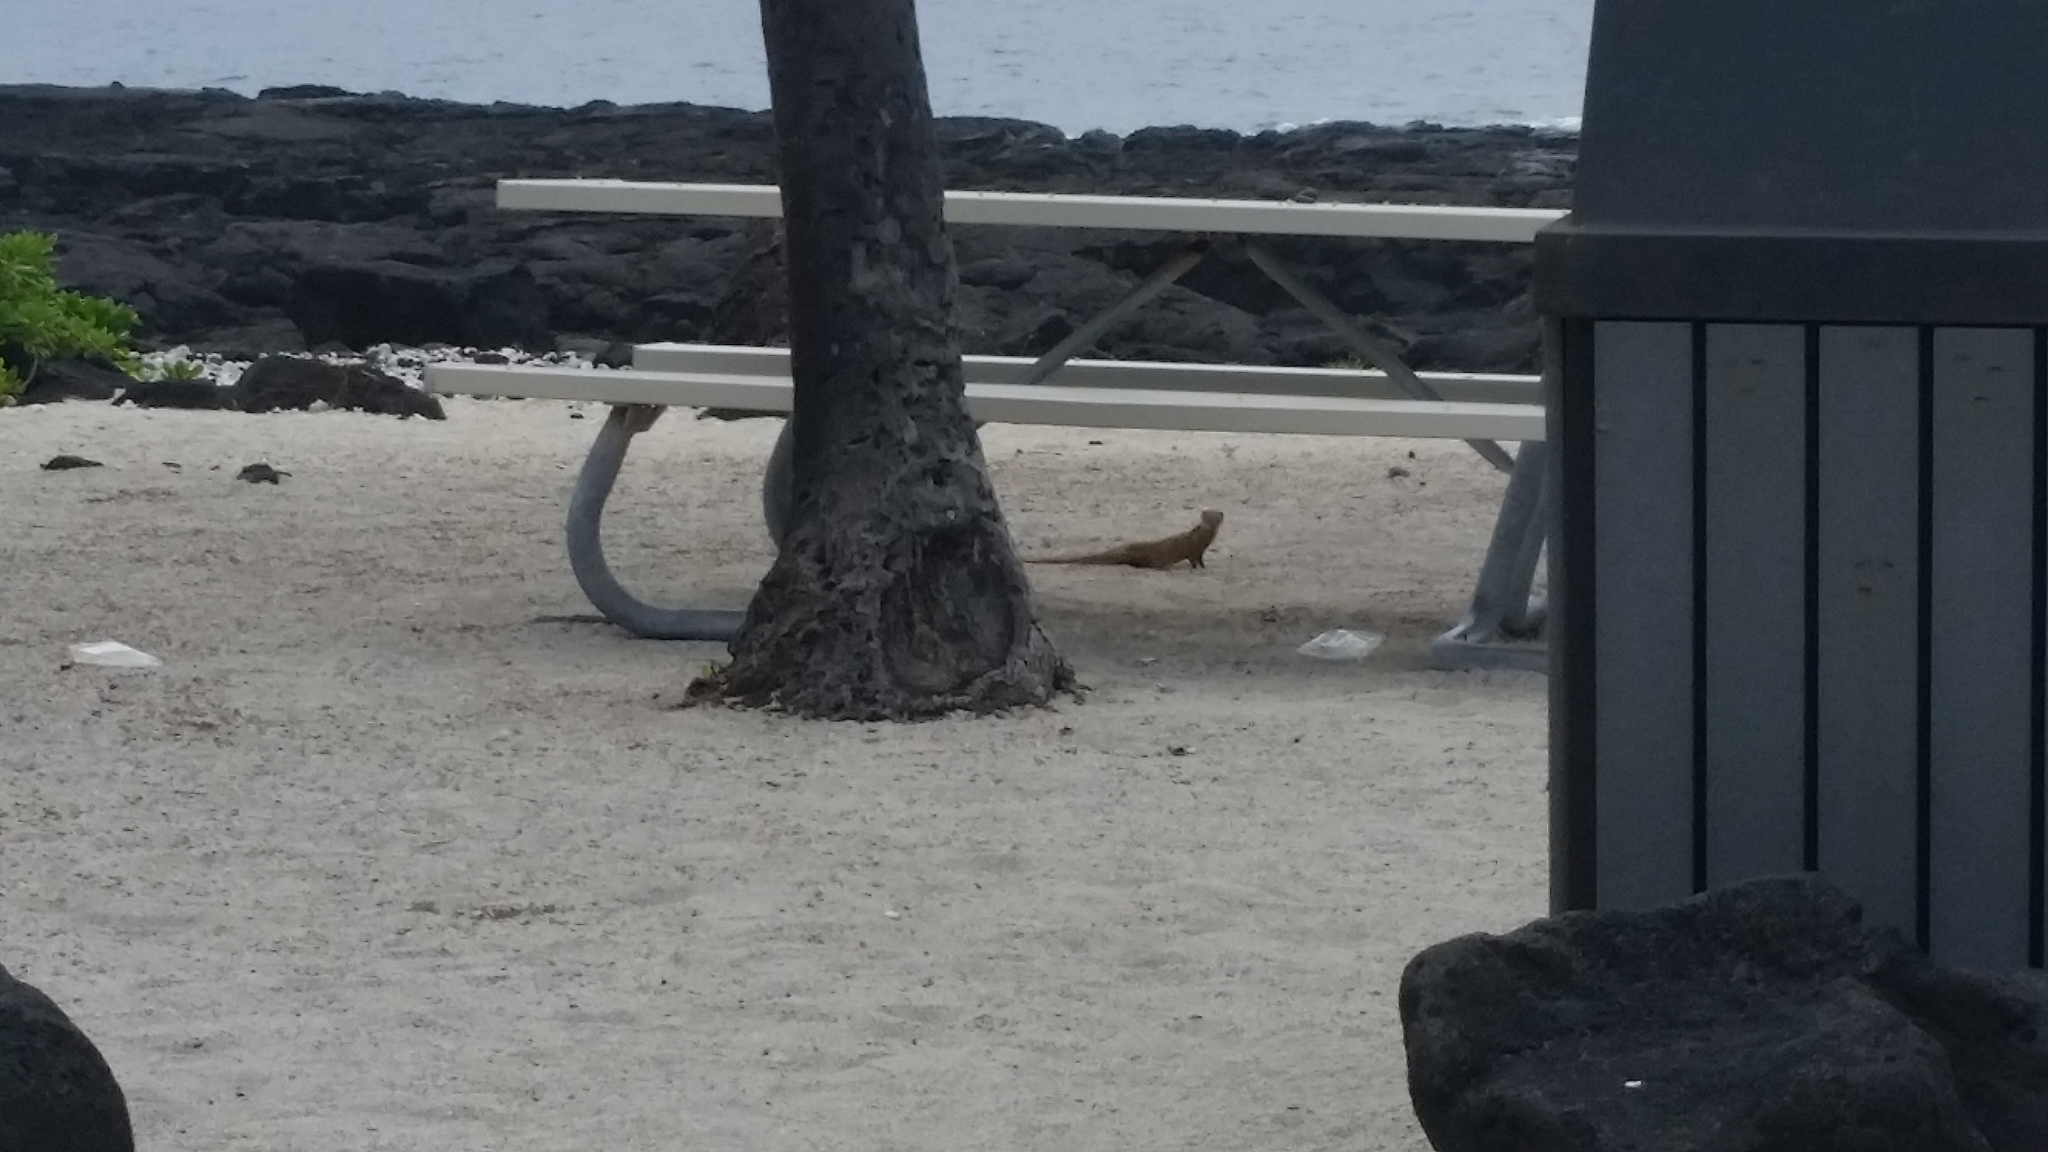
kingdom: Animalia
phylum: Chordata
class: Mammalia
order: Carnivora
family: Herpestidae
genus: Herpestes
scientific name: Herpestes javanicus
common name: Small asian mongoose
